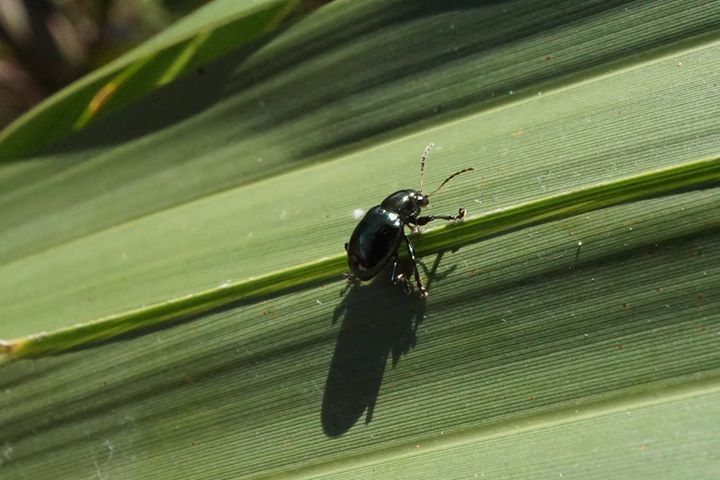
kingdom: Animalia
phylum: Arthropoda
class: Insecta
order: Coleoptera
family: Chrysomelidae
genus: Typophorus
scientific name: Typophorus nigritus
